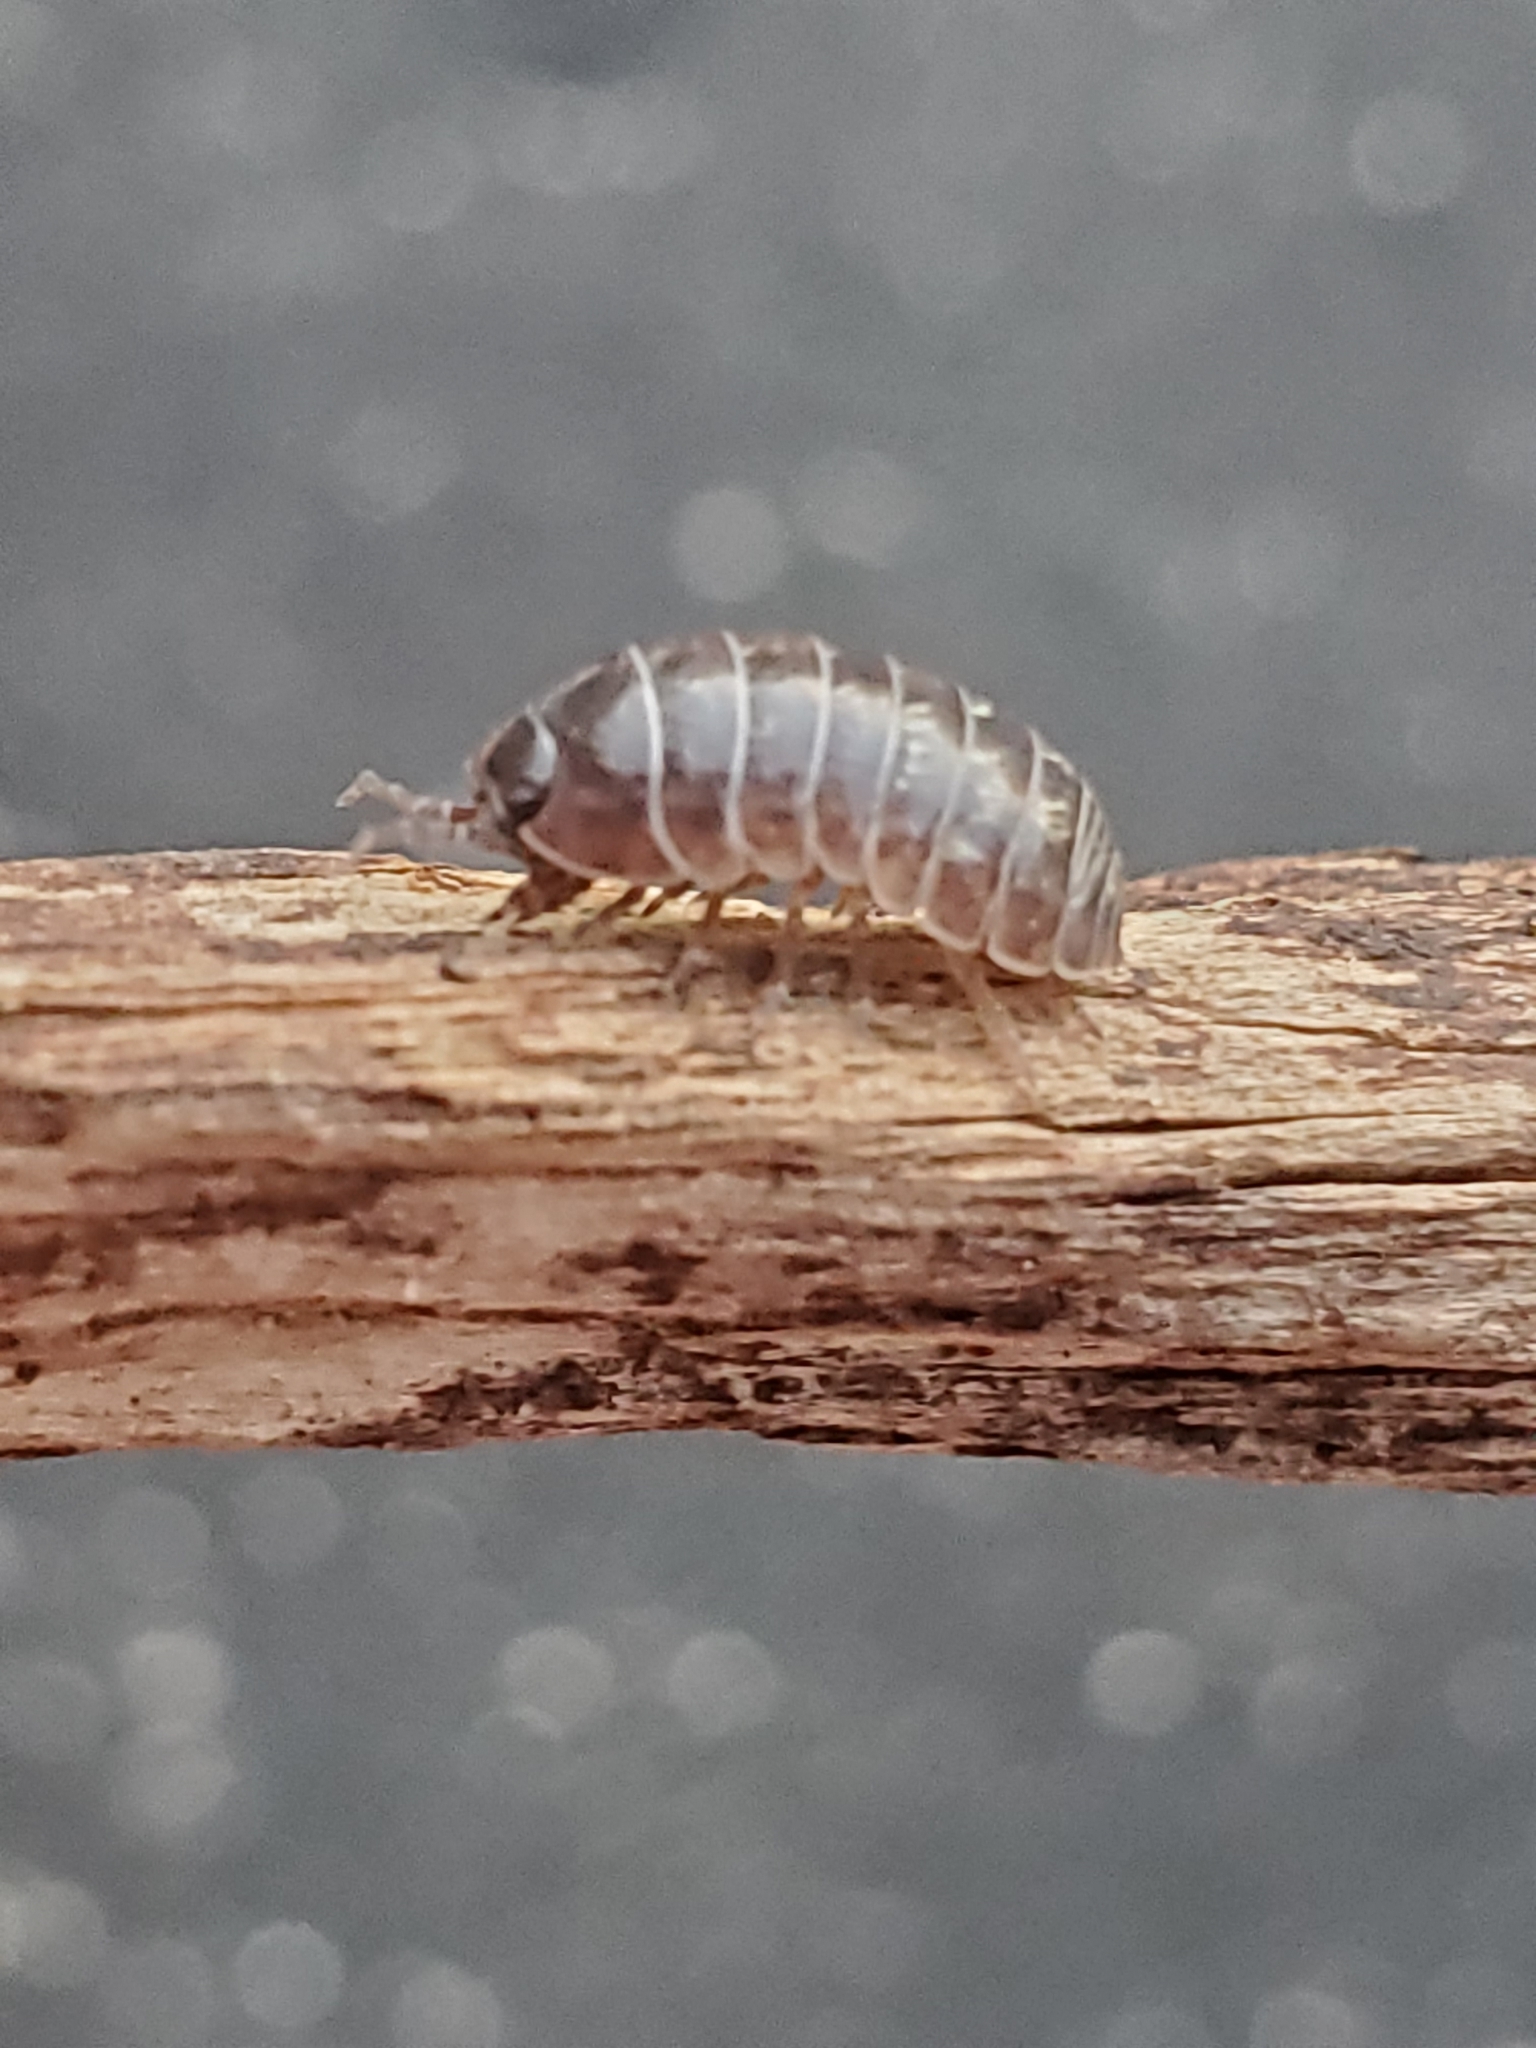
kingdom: Animalia
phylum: Arthropoda
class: Malacostraca
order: Isopoda
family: Armadillidiidae
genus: Armadillidium
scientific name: Armadillidium vulgare
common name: Common pill woodlouse
